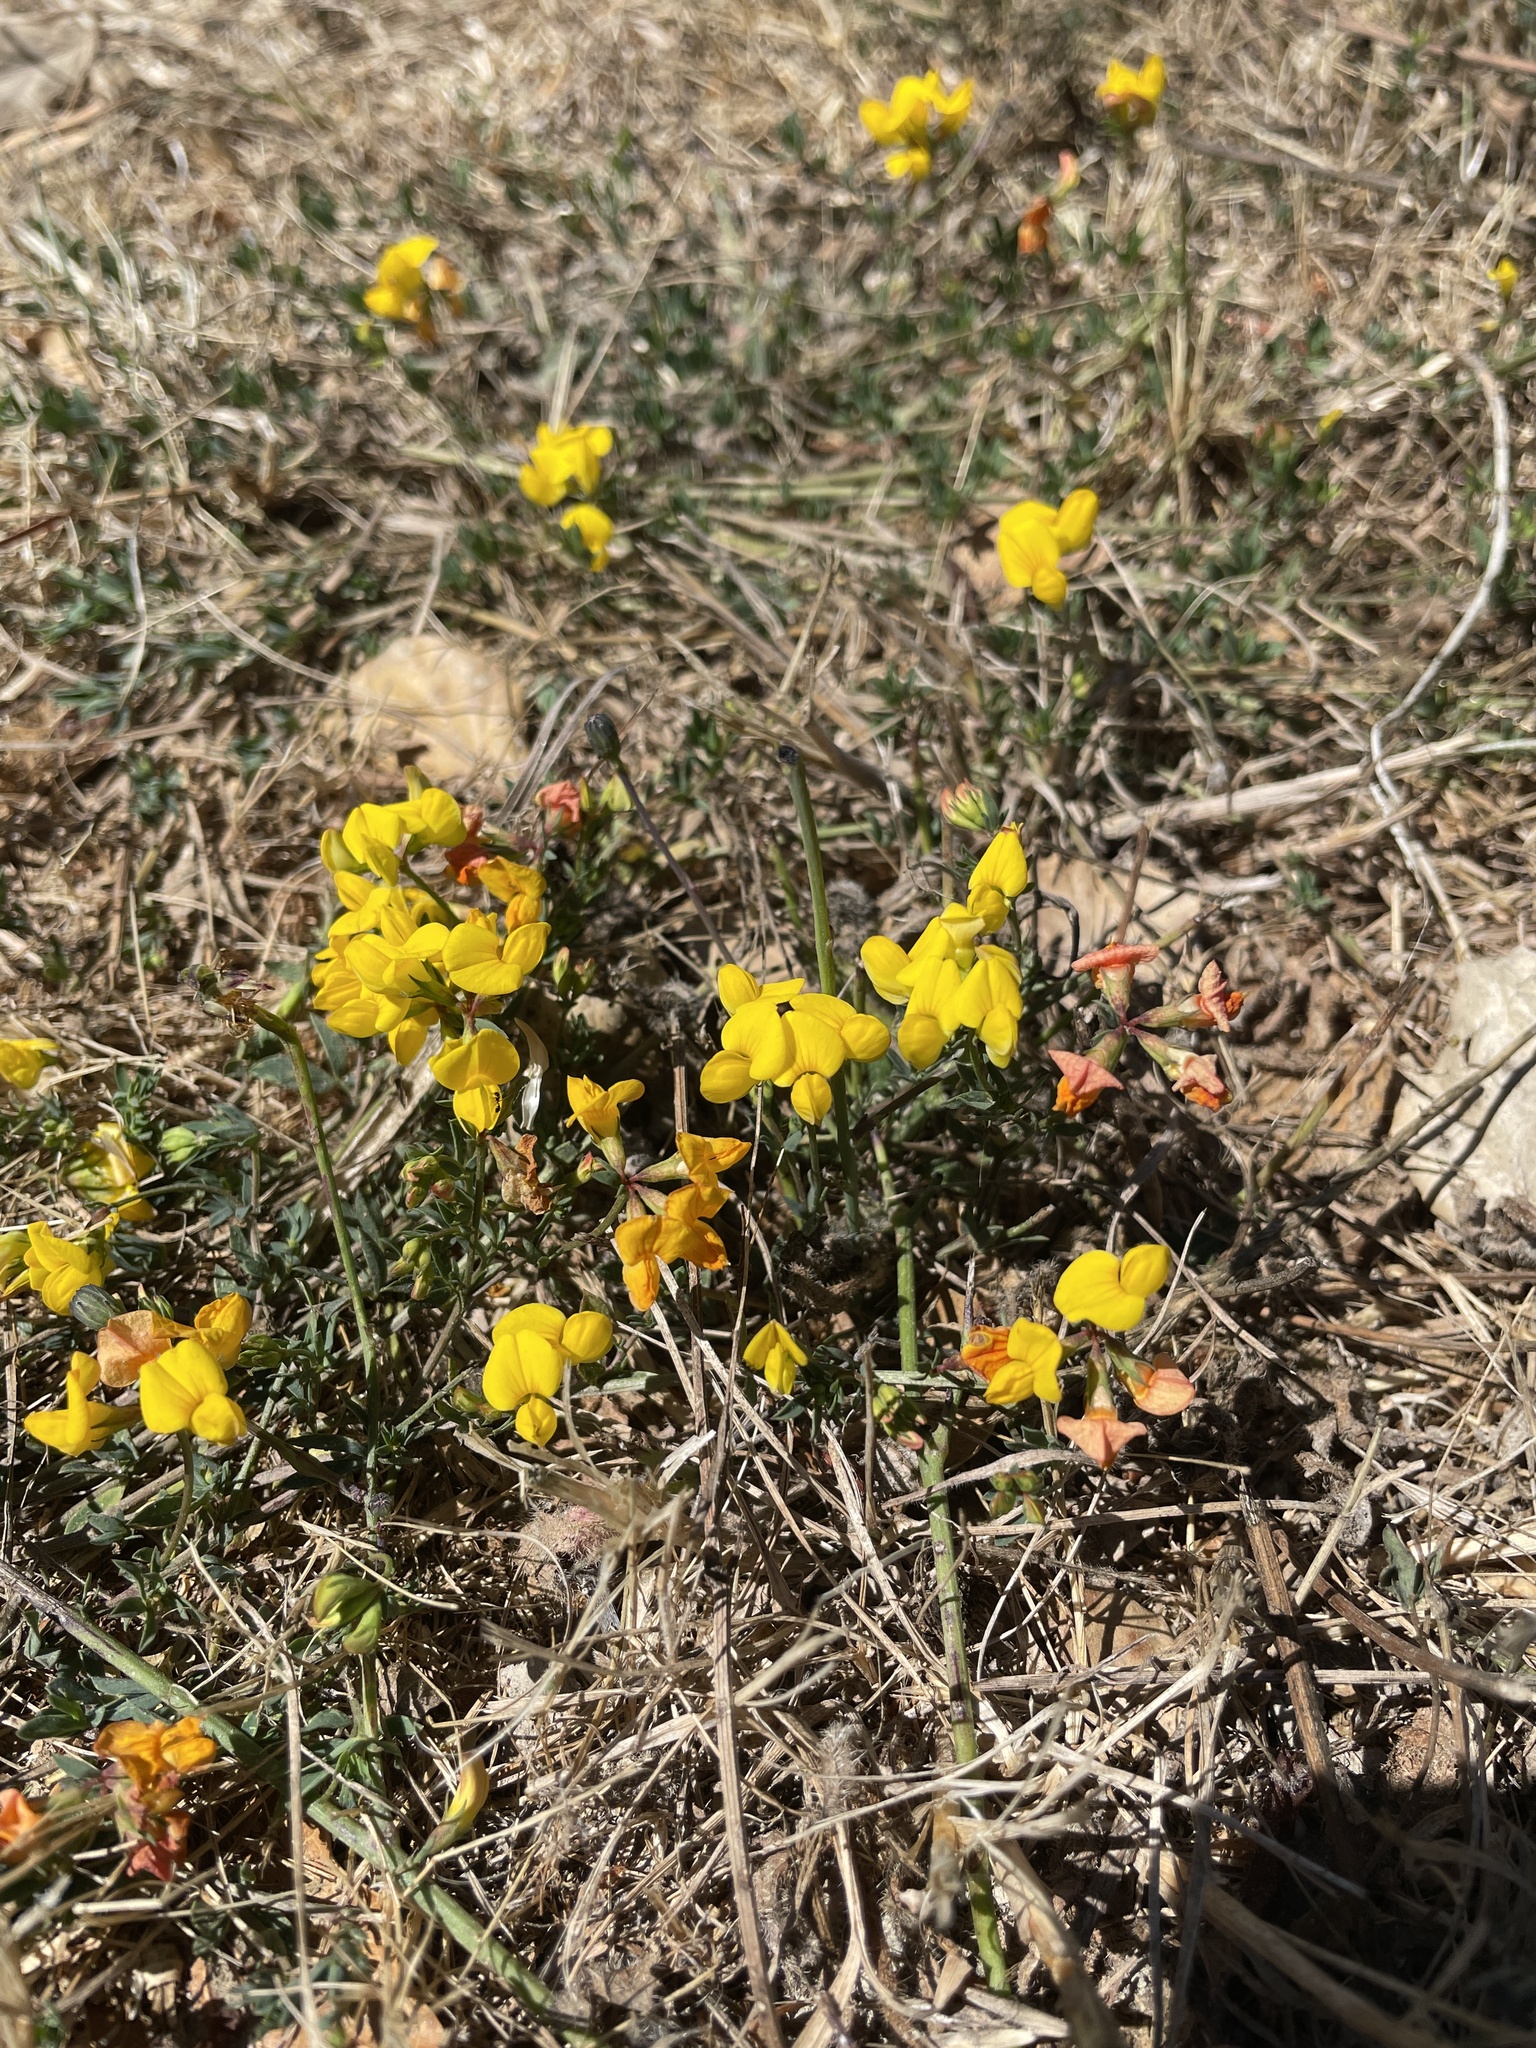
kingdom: Plantae
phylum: Tracheophyta
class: Magnoliopsida
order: Fabales
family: Fabaceae
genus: Lotus
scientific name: Lotus corniculatus
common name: Common bird's-foot-trefoil
